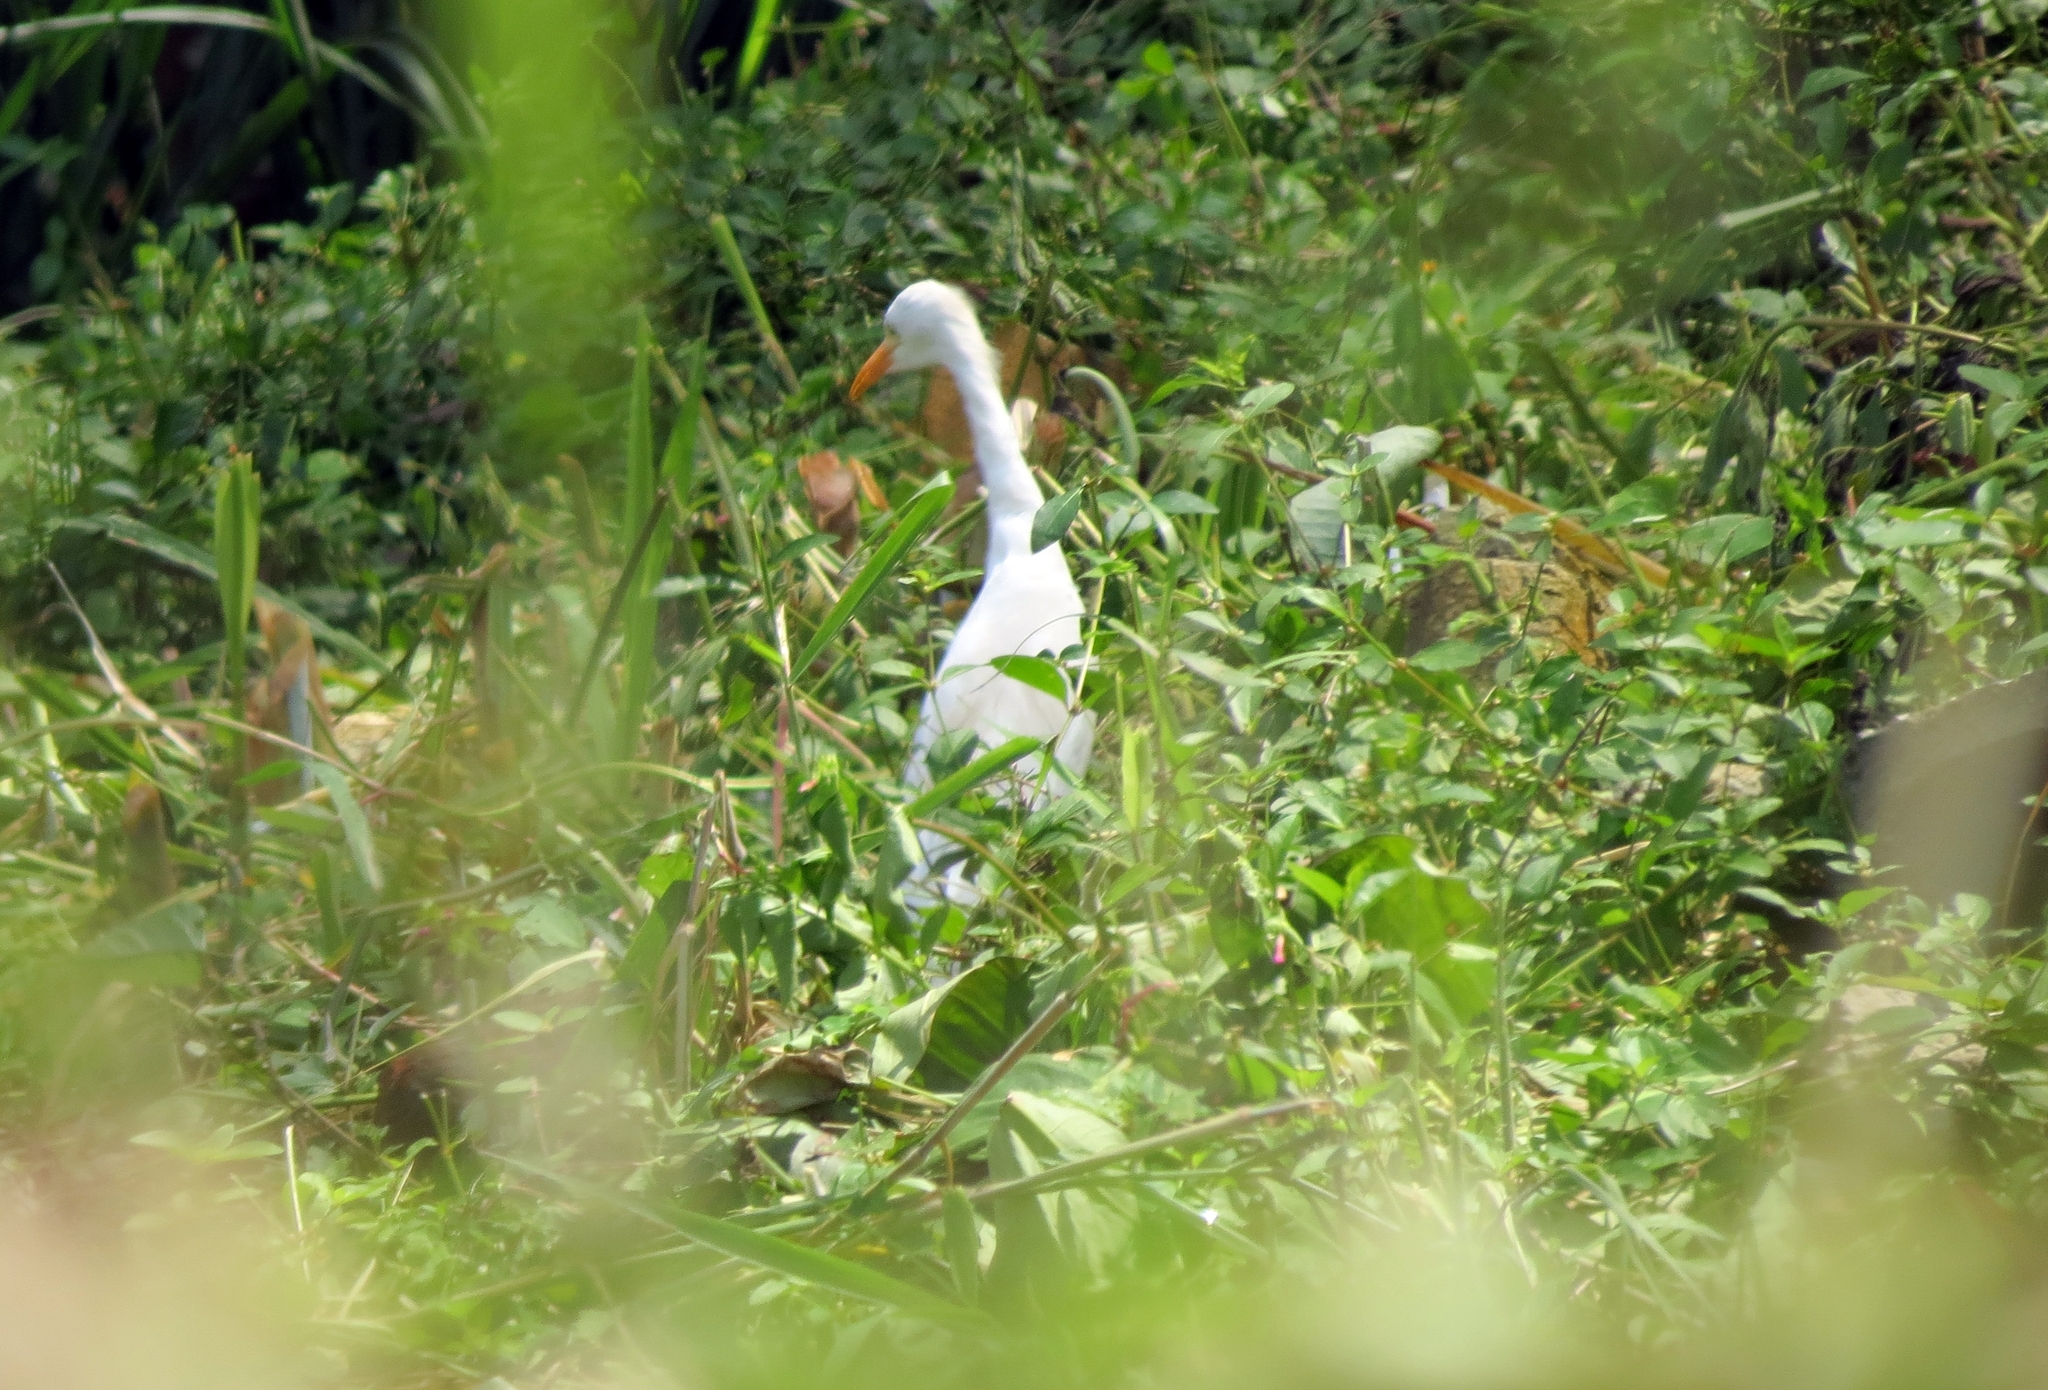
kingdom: Animalia
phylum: Chordata
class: Aves
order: Pelecaniformes
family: Ardeidae
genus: Bubulcus
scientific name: Bubulcus ibis
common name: Cattle egret
